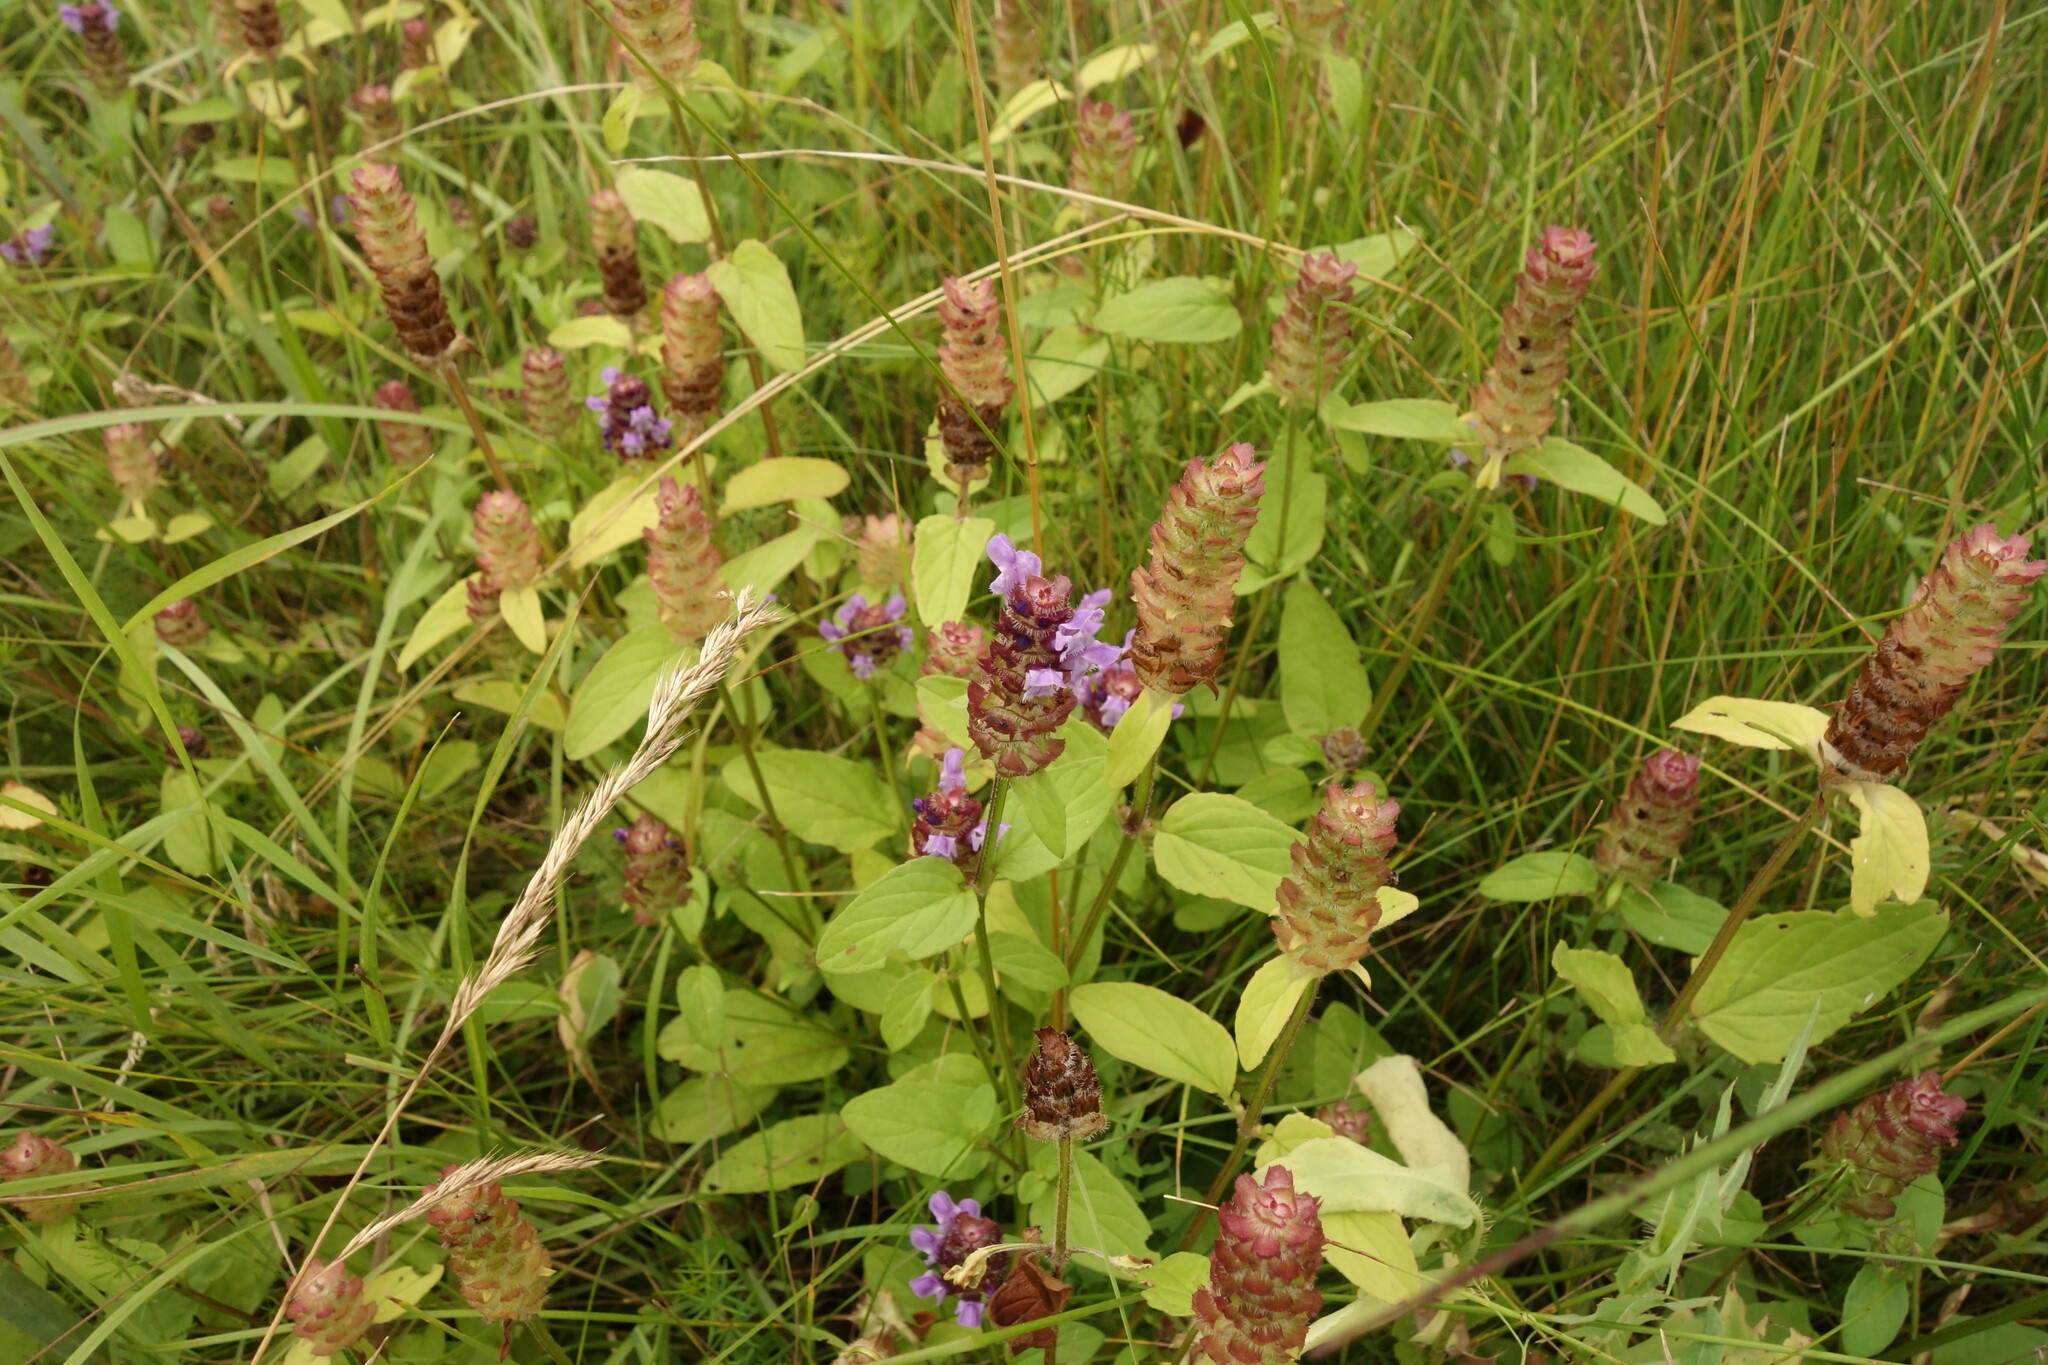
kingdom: Plantae
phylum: Tracheophyta
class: Magnoliopsida
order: Lamiales
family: Lamiaceae
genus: Prunella
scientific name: Prunella vulgaris
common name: Heal-all
